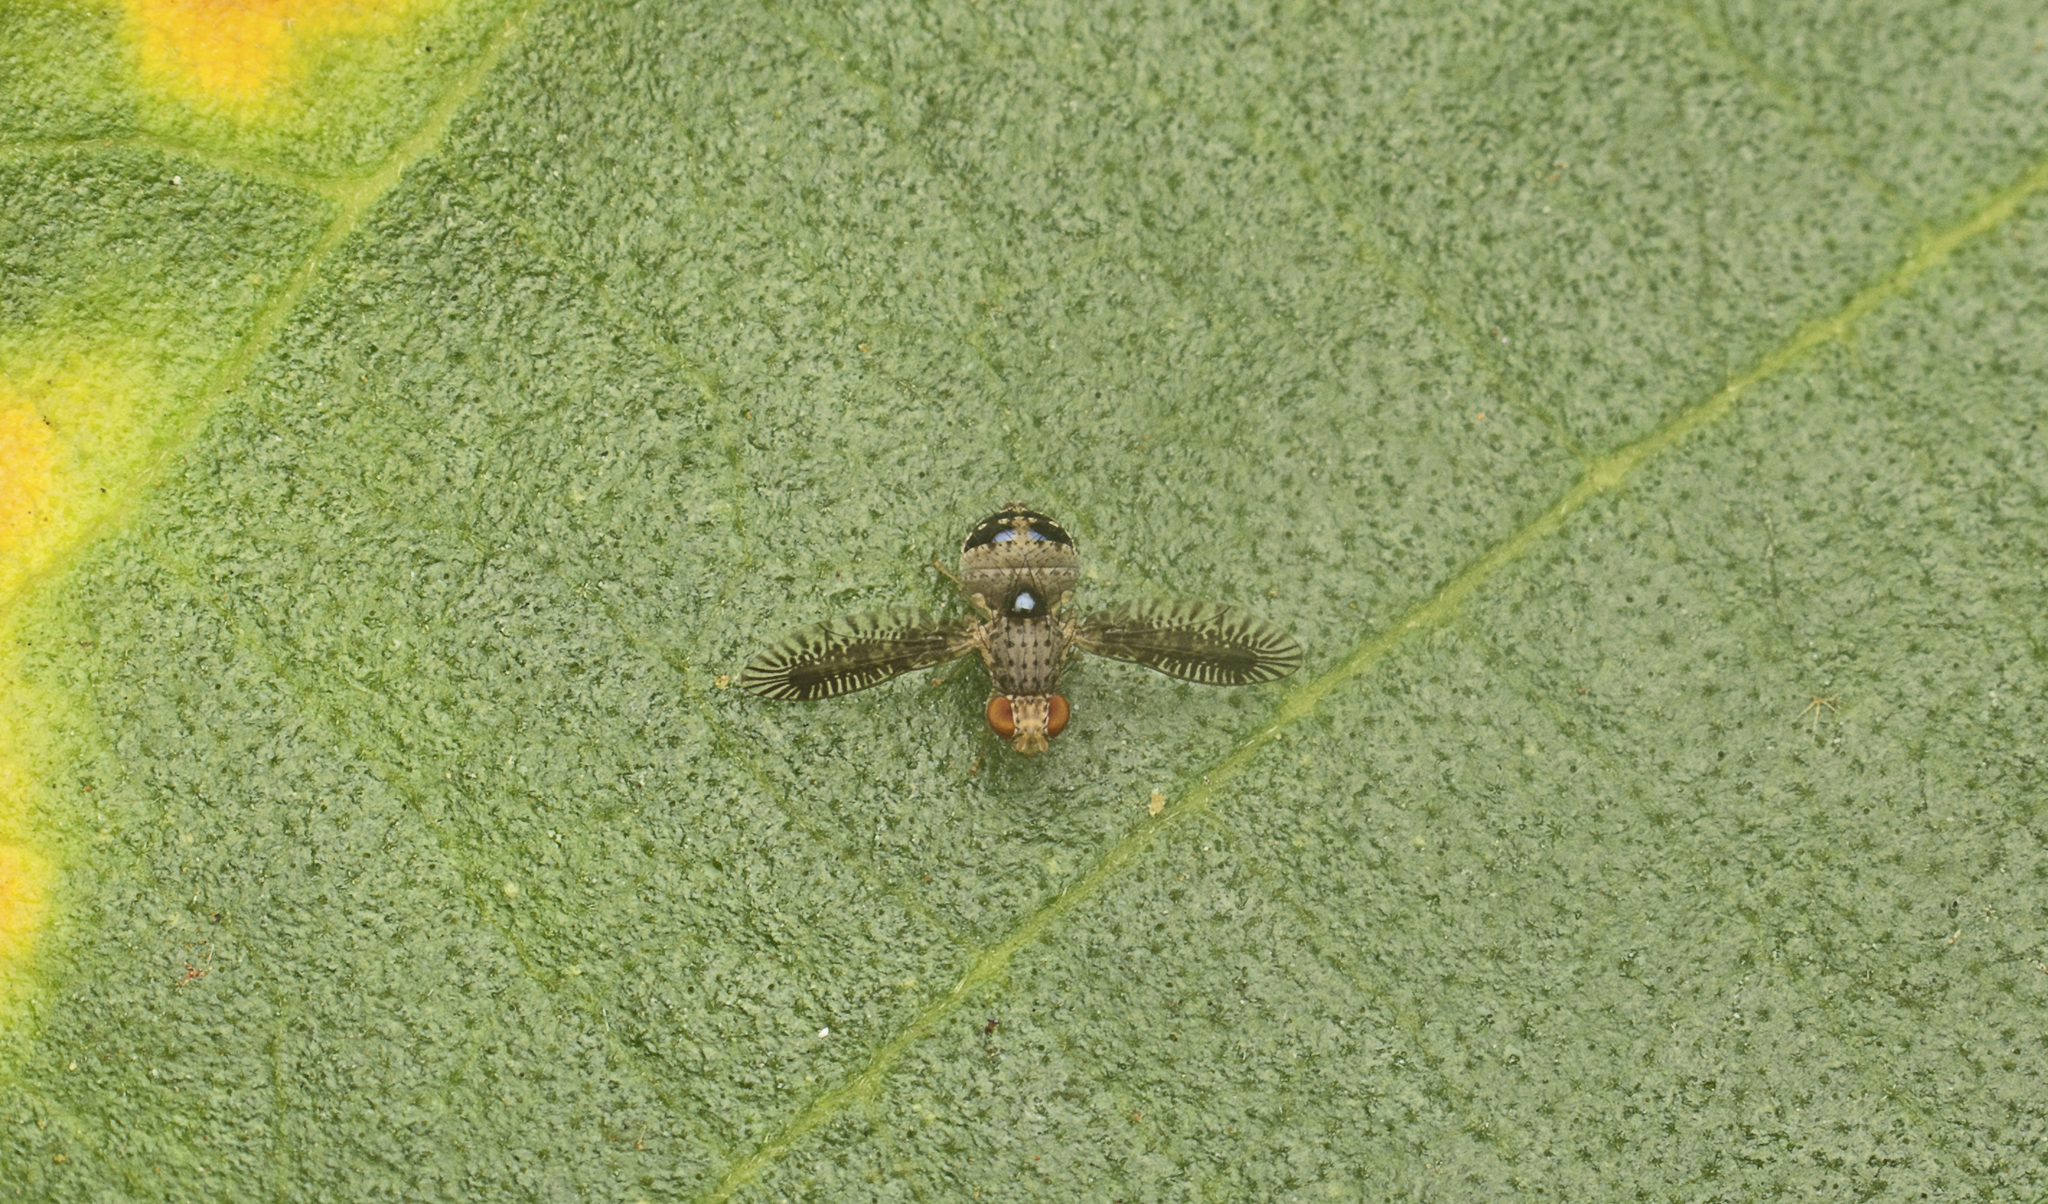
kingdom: Animalia
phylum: Arthropoda
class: Insecta
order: Diptera
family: Lauxaniidae
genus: Noeetomima
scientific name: Noeetomima decora
